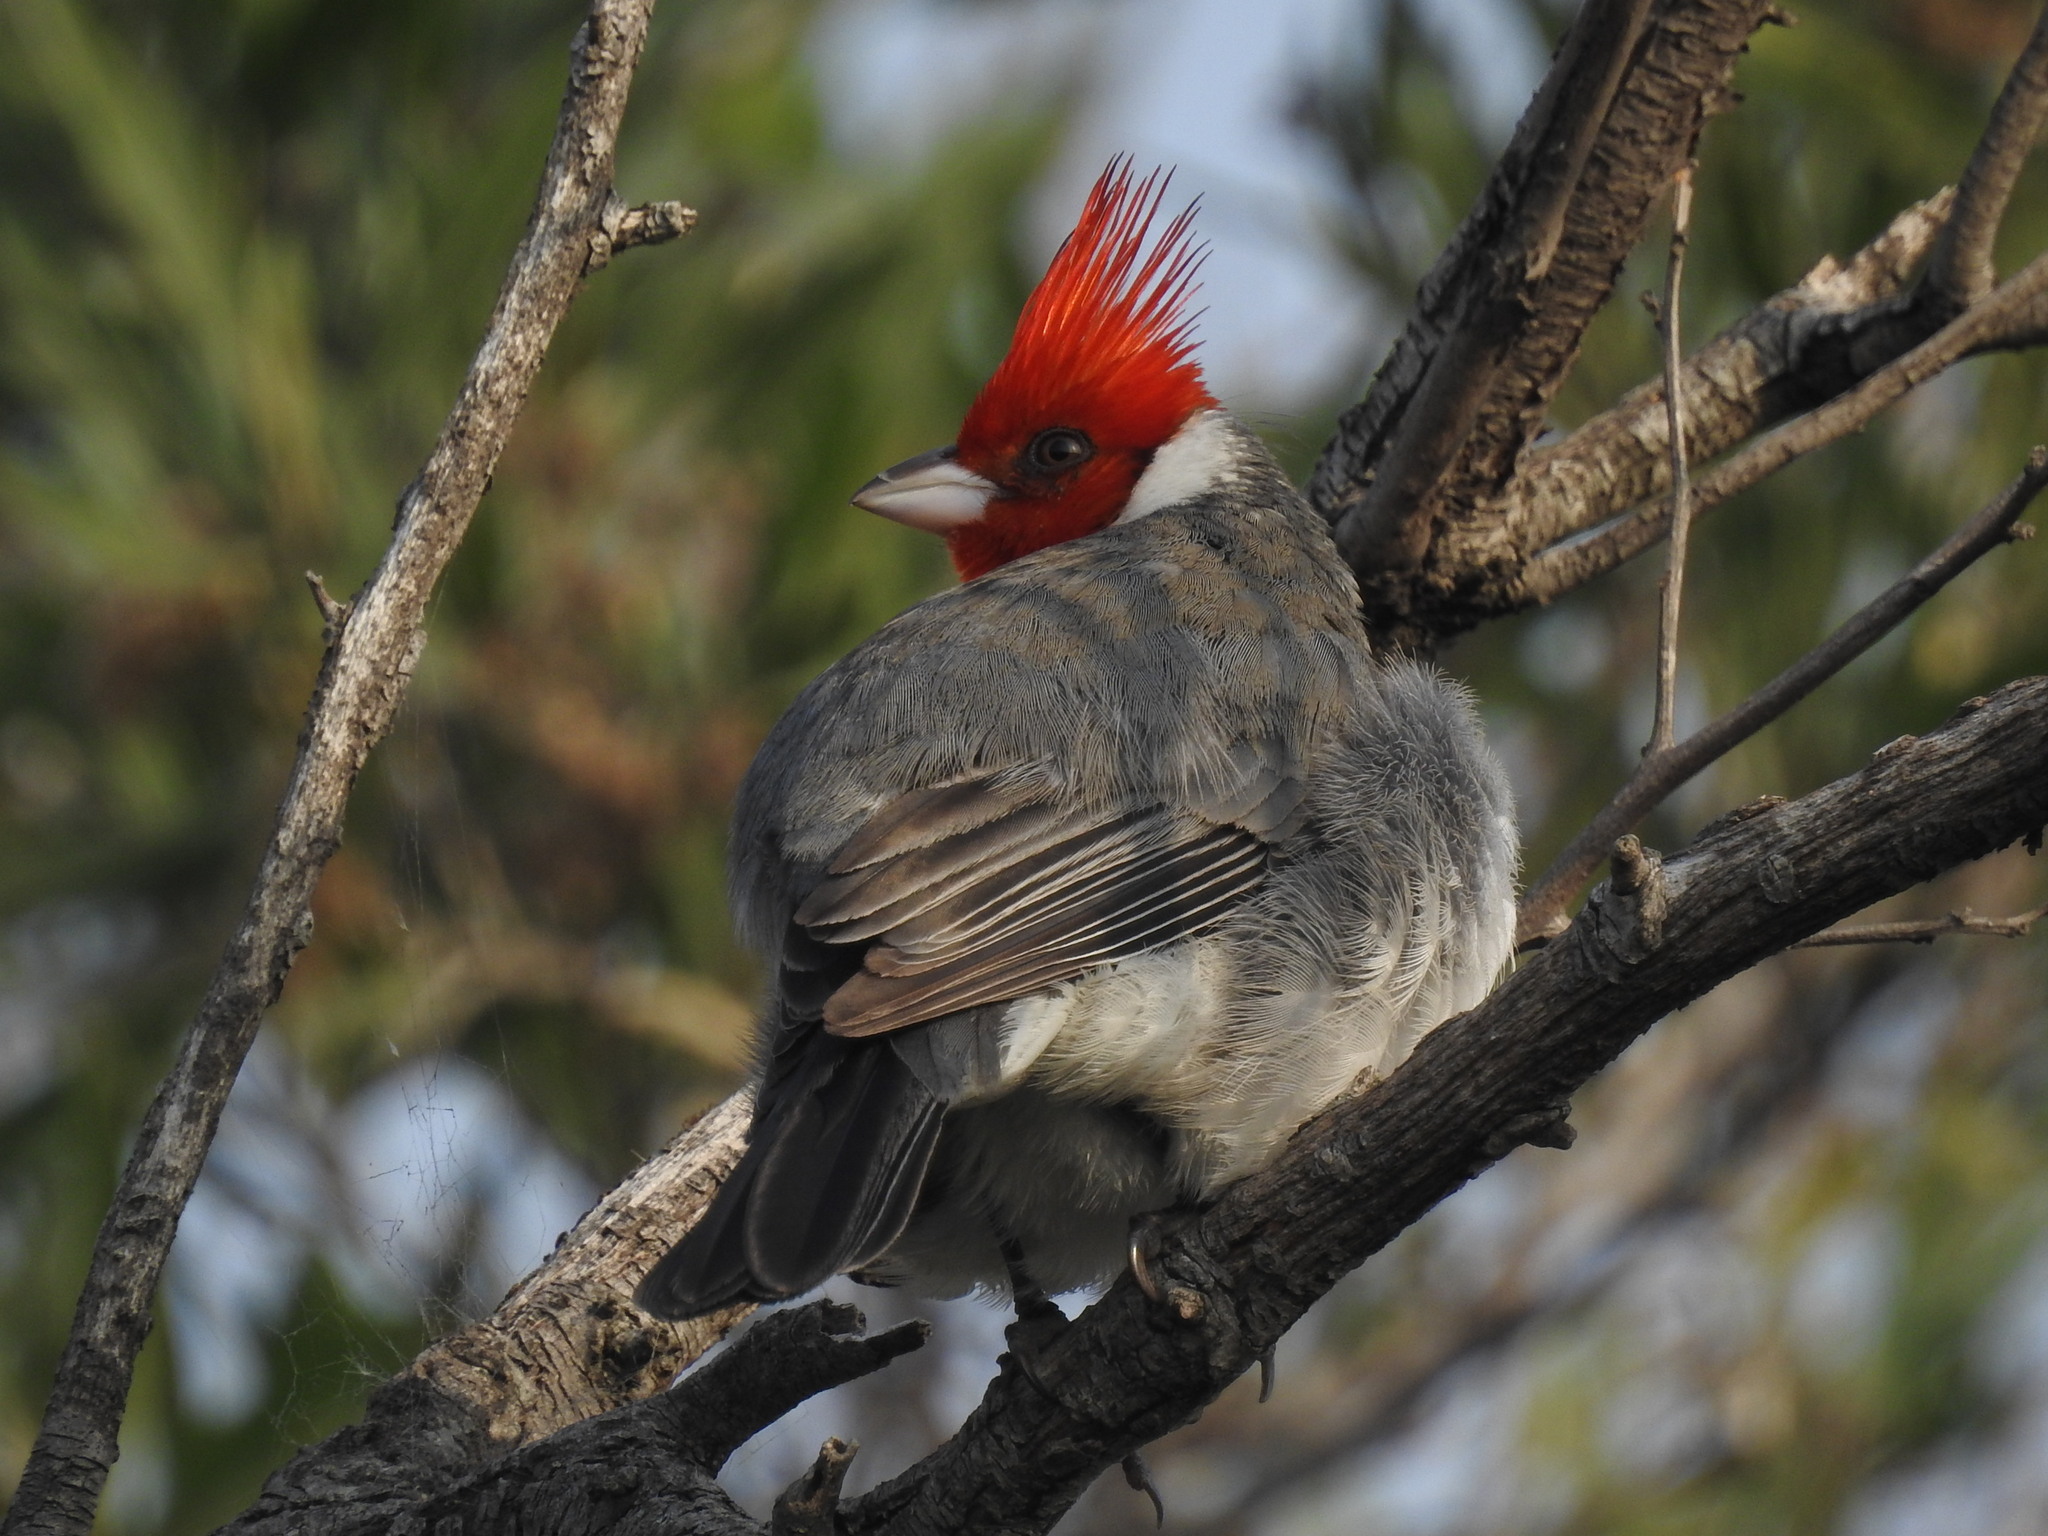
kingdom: Animalia
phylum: Chordata
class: Aves
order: Passeriformes
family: Thraupidae
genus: Paroaria
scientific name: Paroaria coronata
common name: Red-crested cardinal
